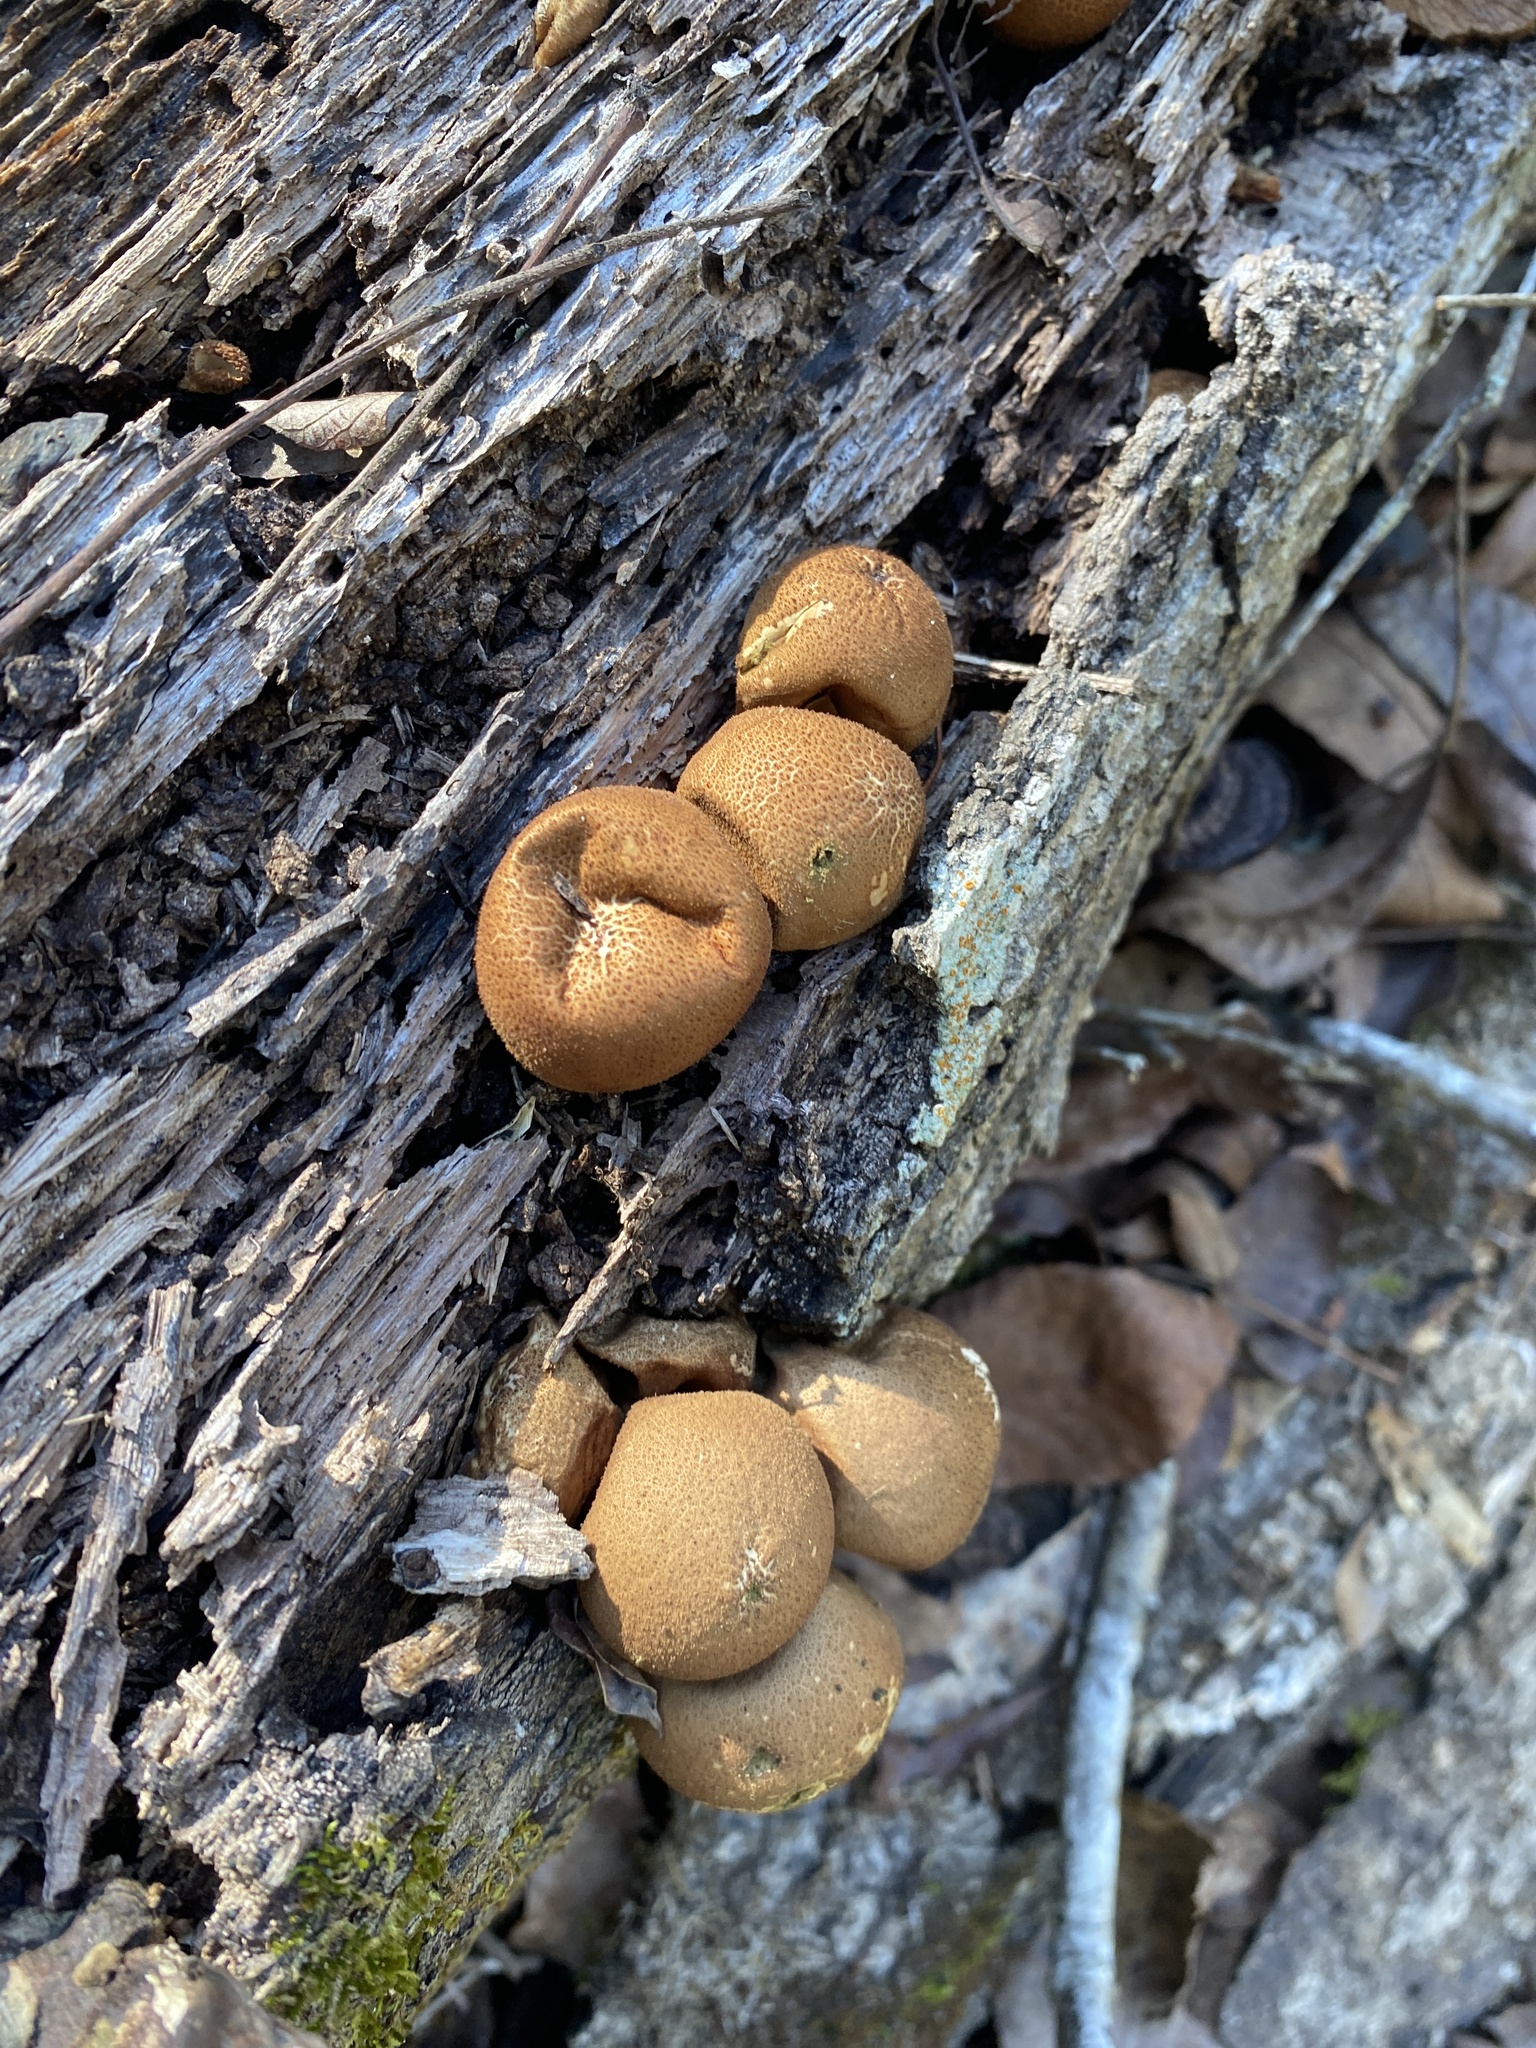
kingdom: Fungi
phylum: Basidiomycota
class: Agaricomycetes
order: Agaricales
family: Lycoperdaceae
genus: Apioperdon
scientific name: Apioperdon pyriforme
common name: Pear-shaped puffball
